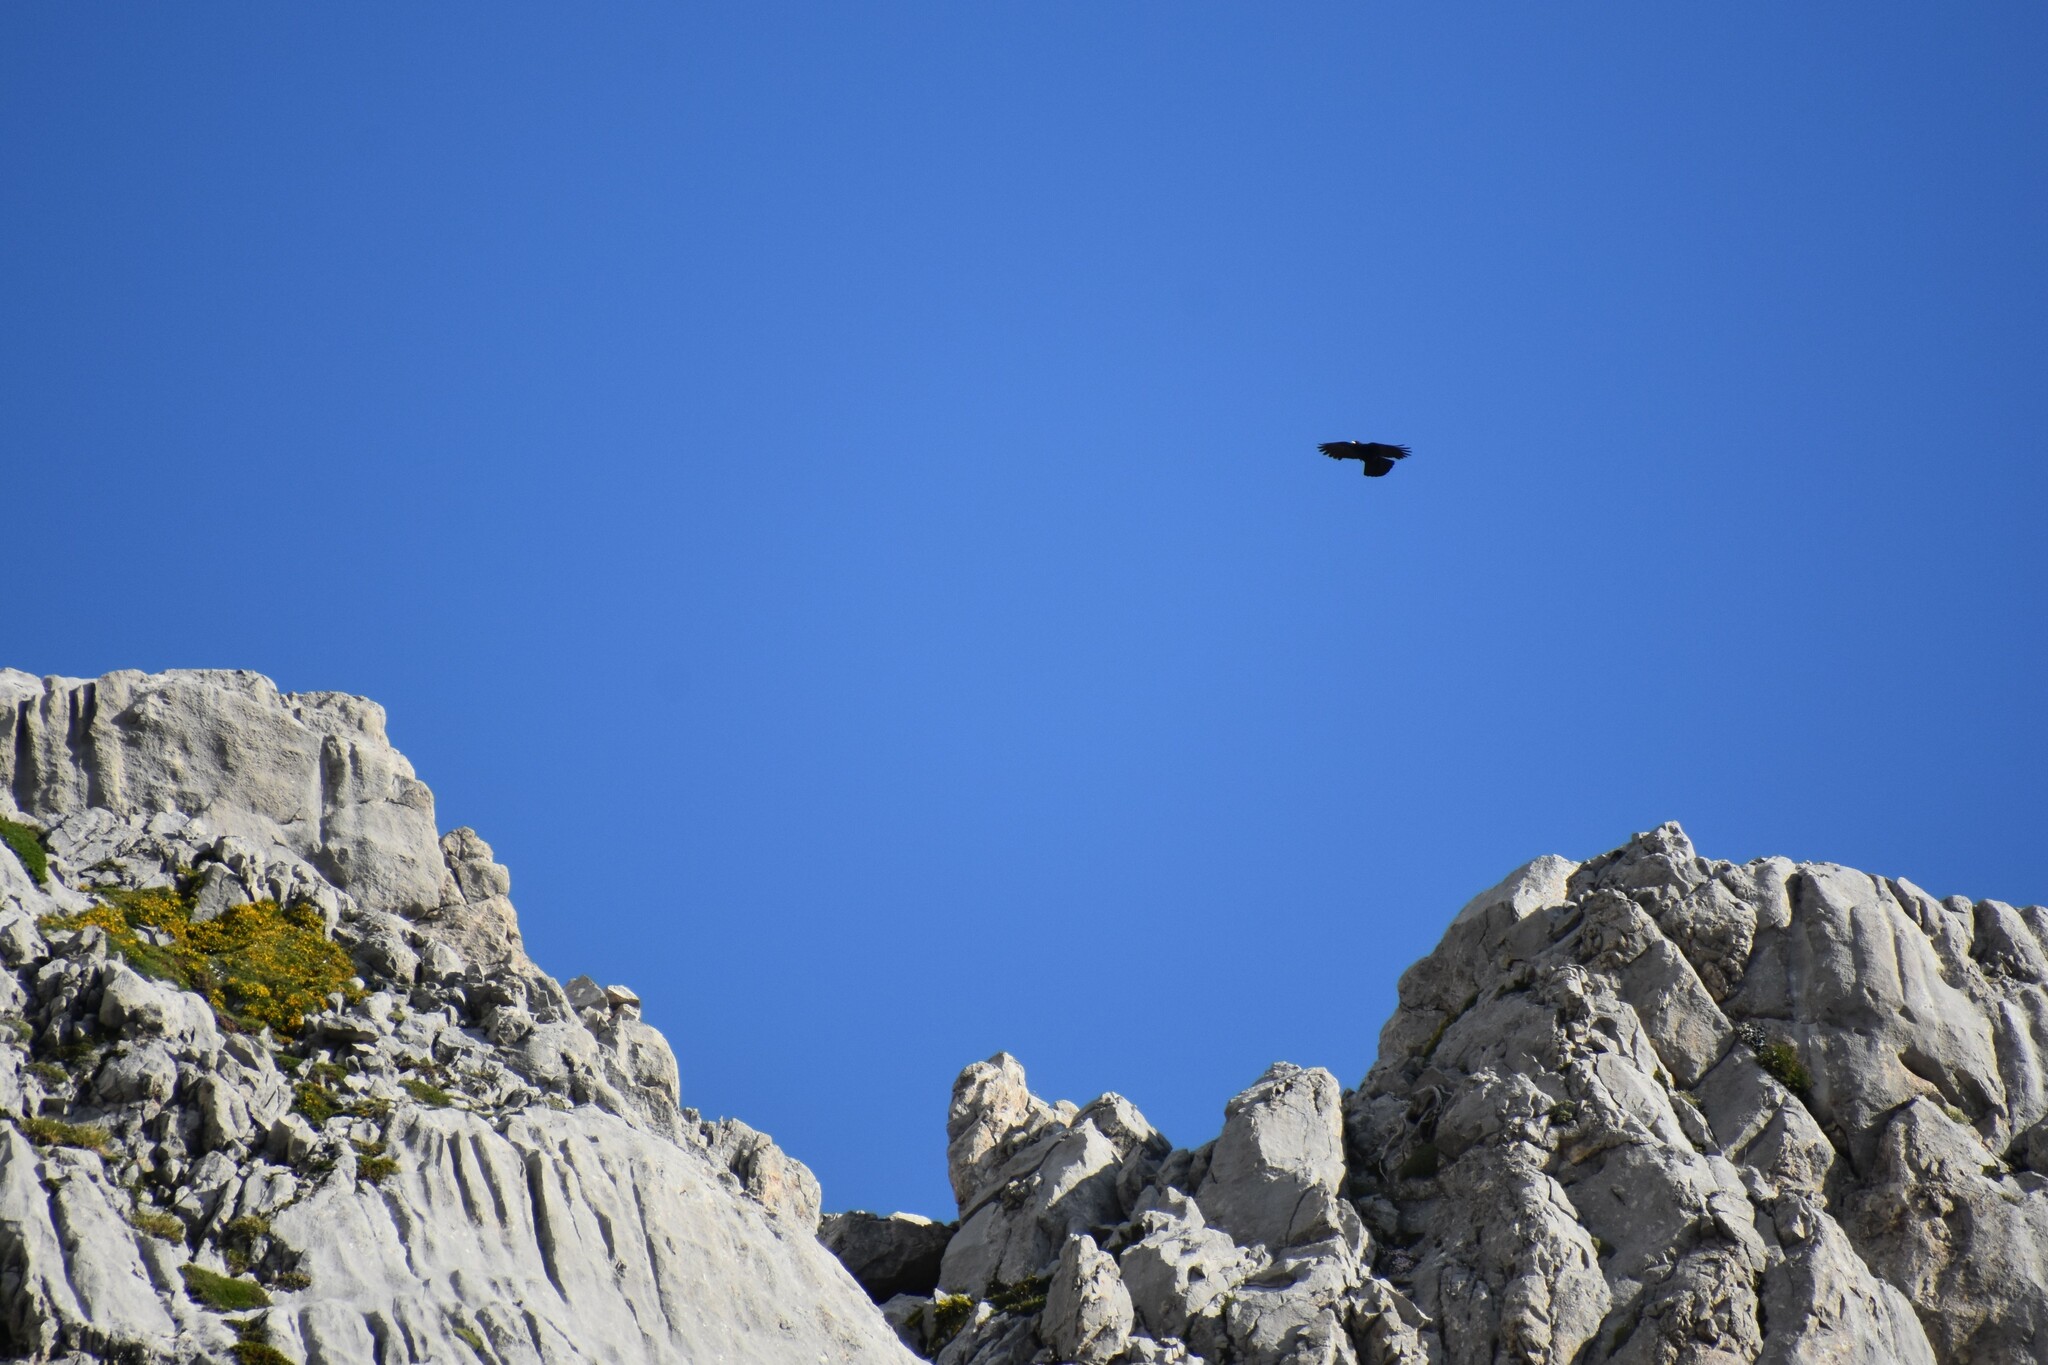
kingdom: Animalia
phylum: Chordata
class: Aves
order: Passeriformes
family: Corvidae
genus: Pyrrhocorax
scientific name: Pyrrhocorax graculus
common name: Alpine chough
